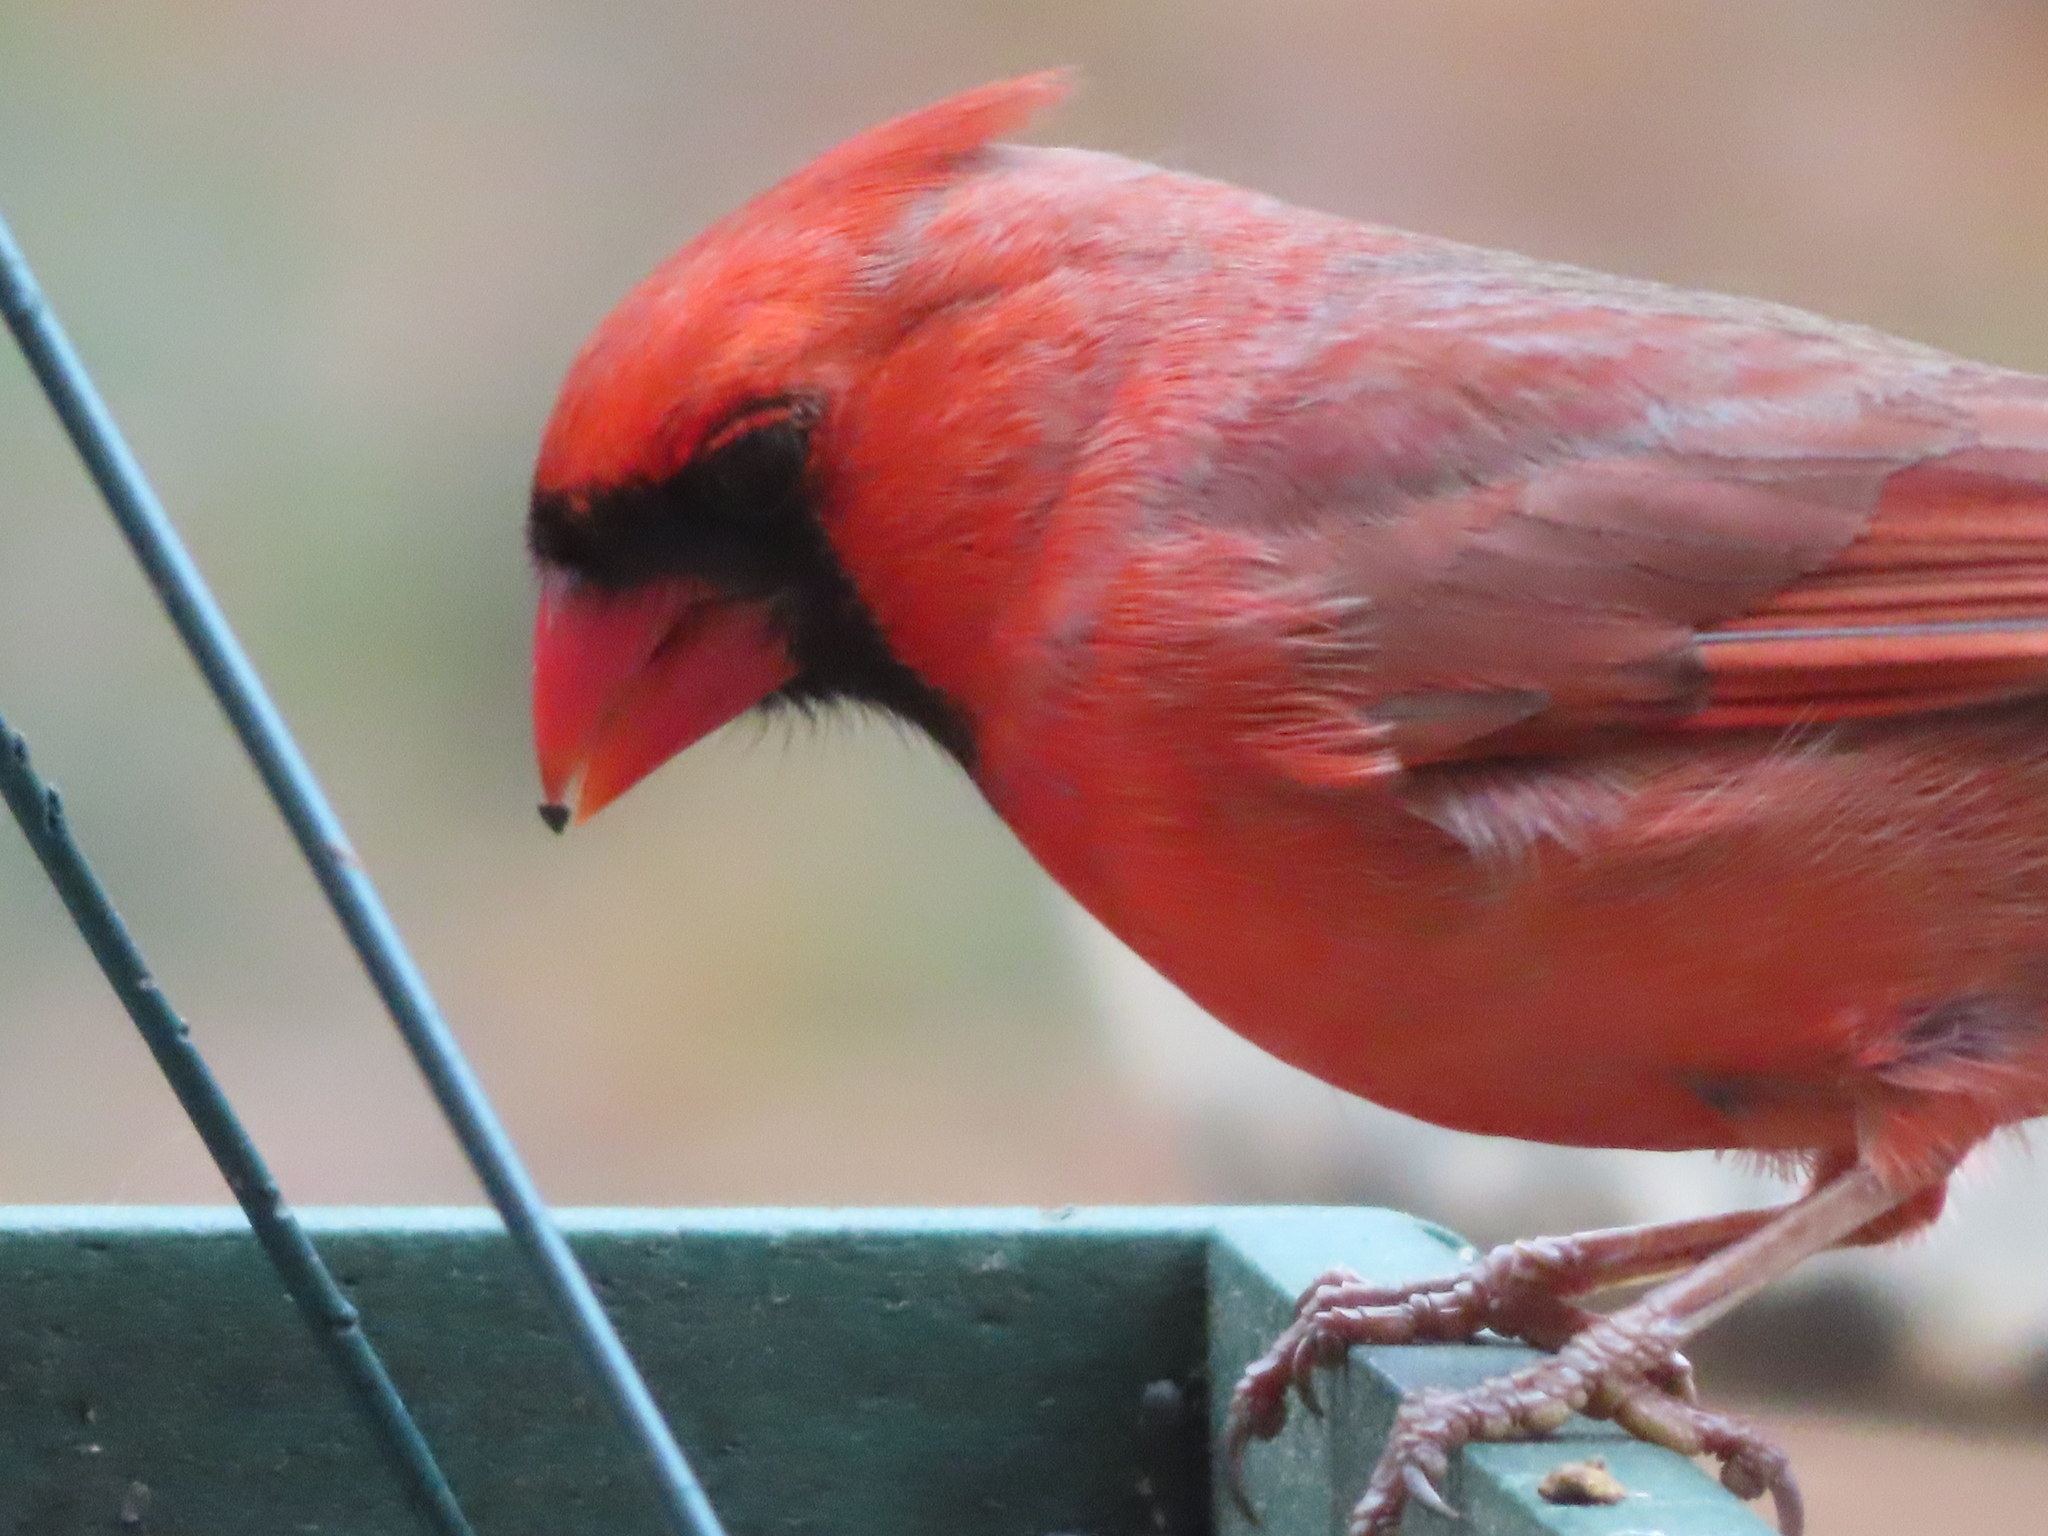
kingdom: Animalia
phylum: Chordata
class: Aves
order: Passeriformes
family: Cardinalidae
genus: Cardinalis
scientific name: Cardinalis cardinalis
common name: Northern cardinal
